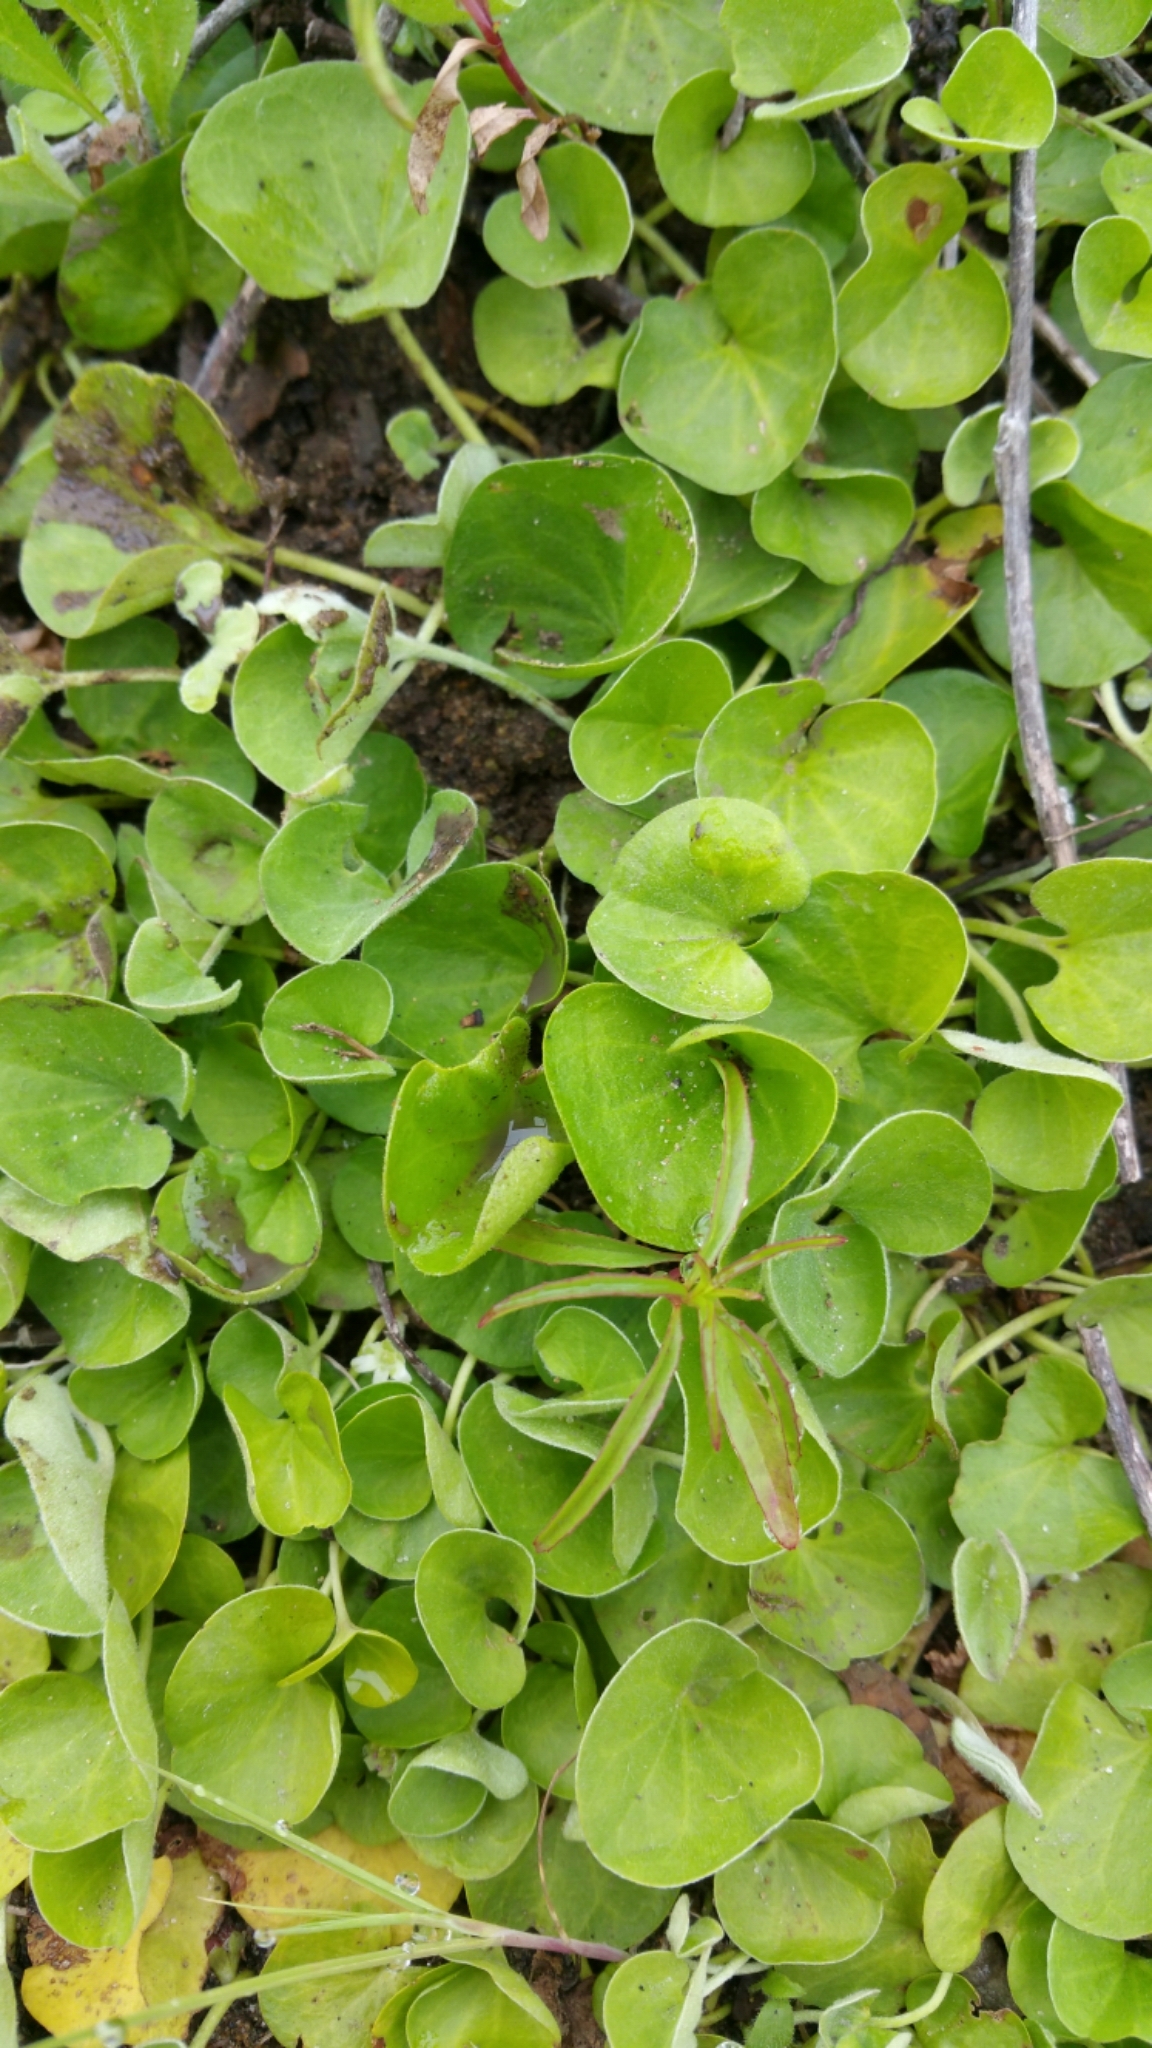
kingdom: Plantae
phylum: Tracheophyta
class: Magnoliopsida
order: Solanales
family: Convolvulaceae
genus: Dichondra
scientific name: Dichondra donelliana
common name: California ponysfoot
